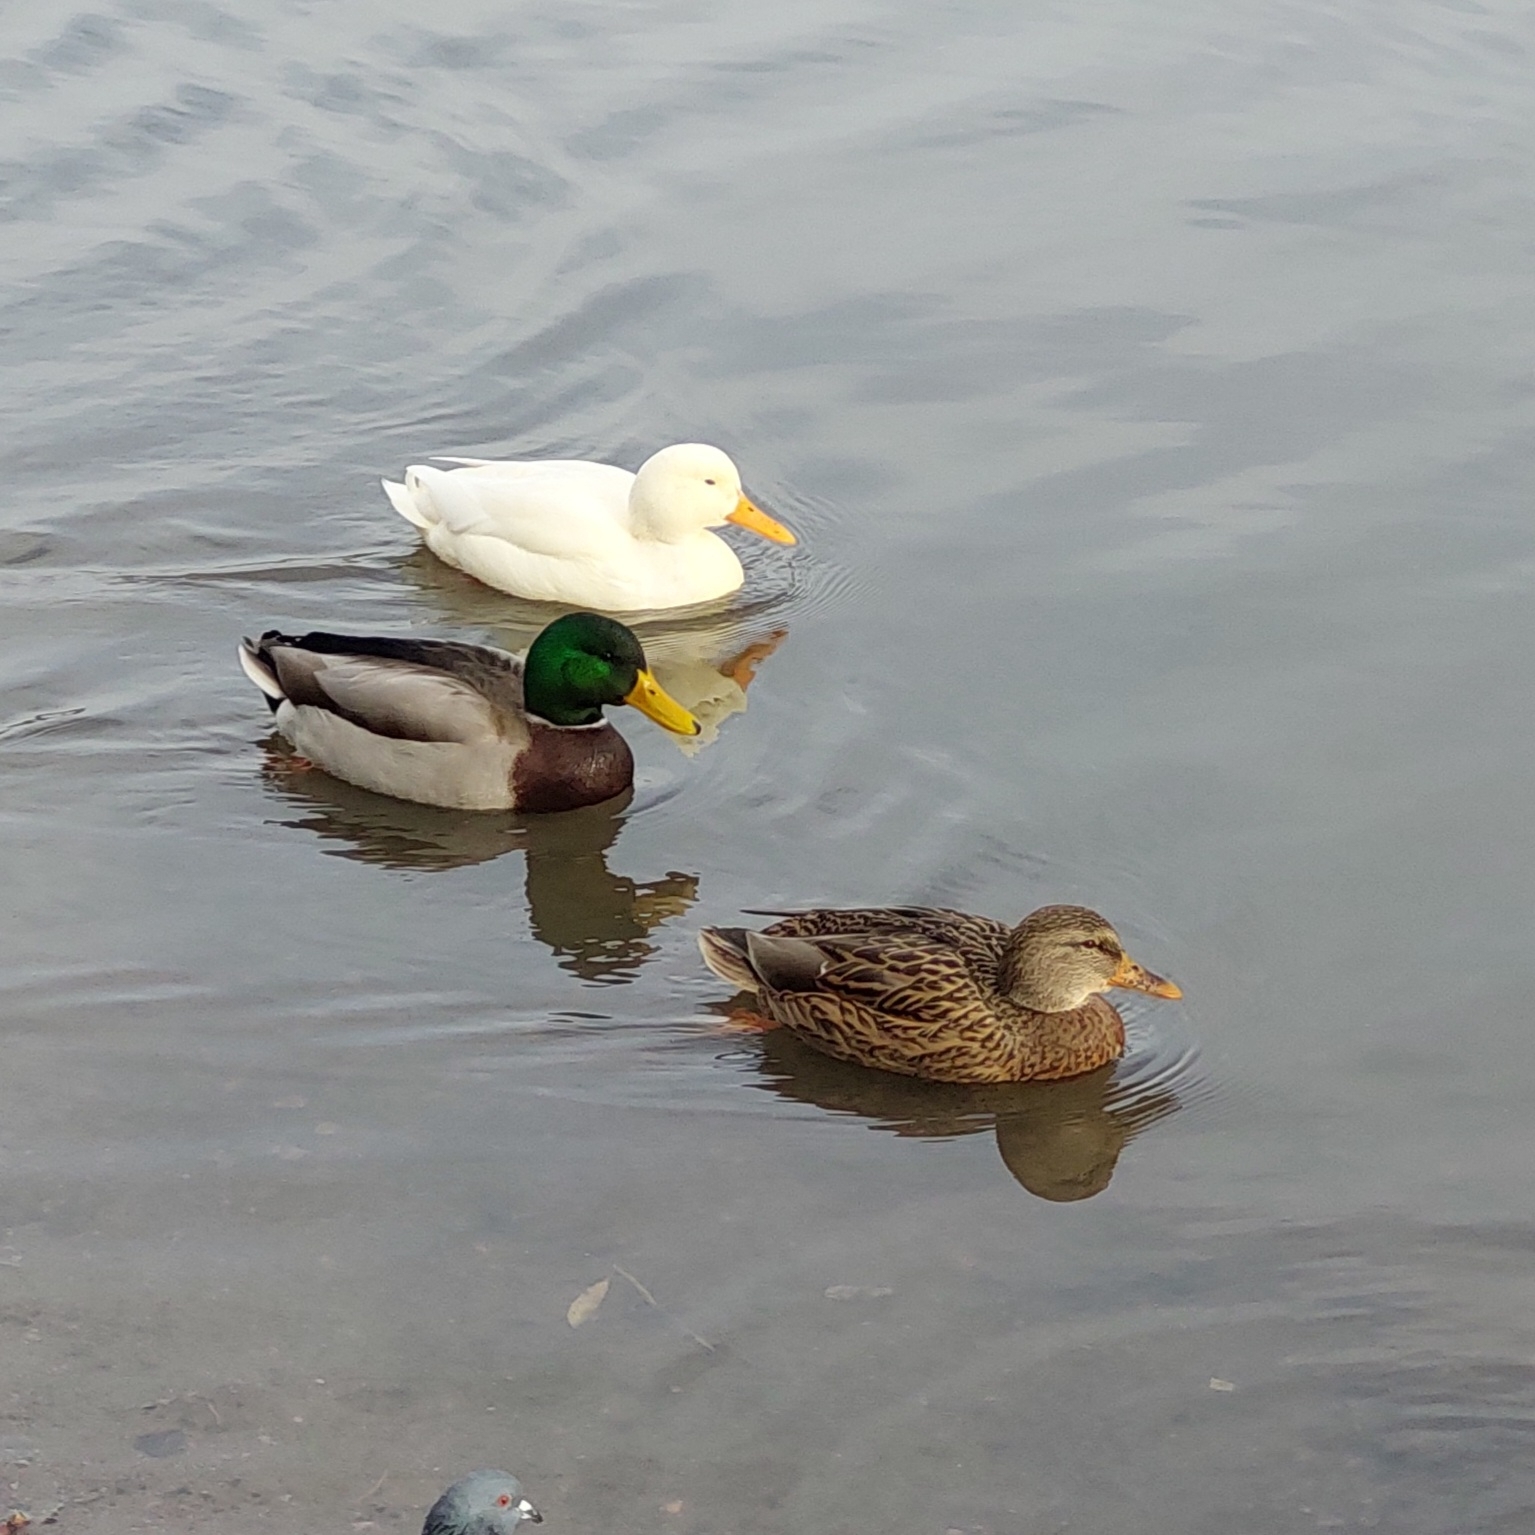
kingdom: Animalia
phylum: Chordata
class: Aves
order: Anseriformes
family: Anatidae
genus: Anas
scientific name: Anas platyrhynchos
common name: Mallard
